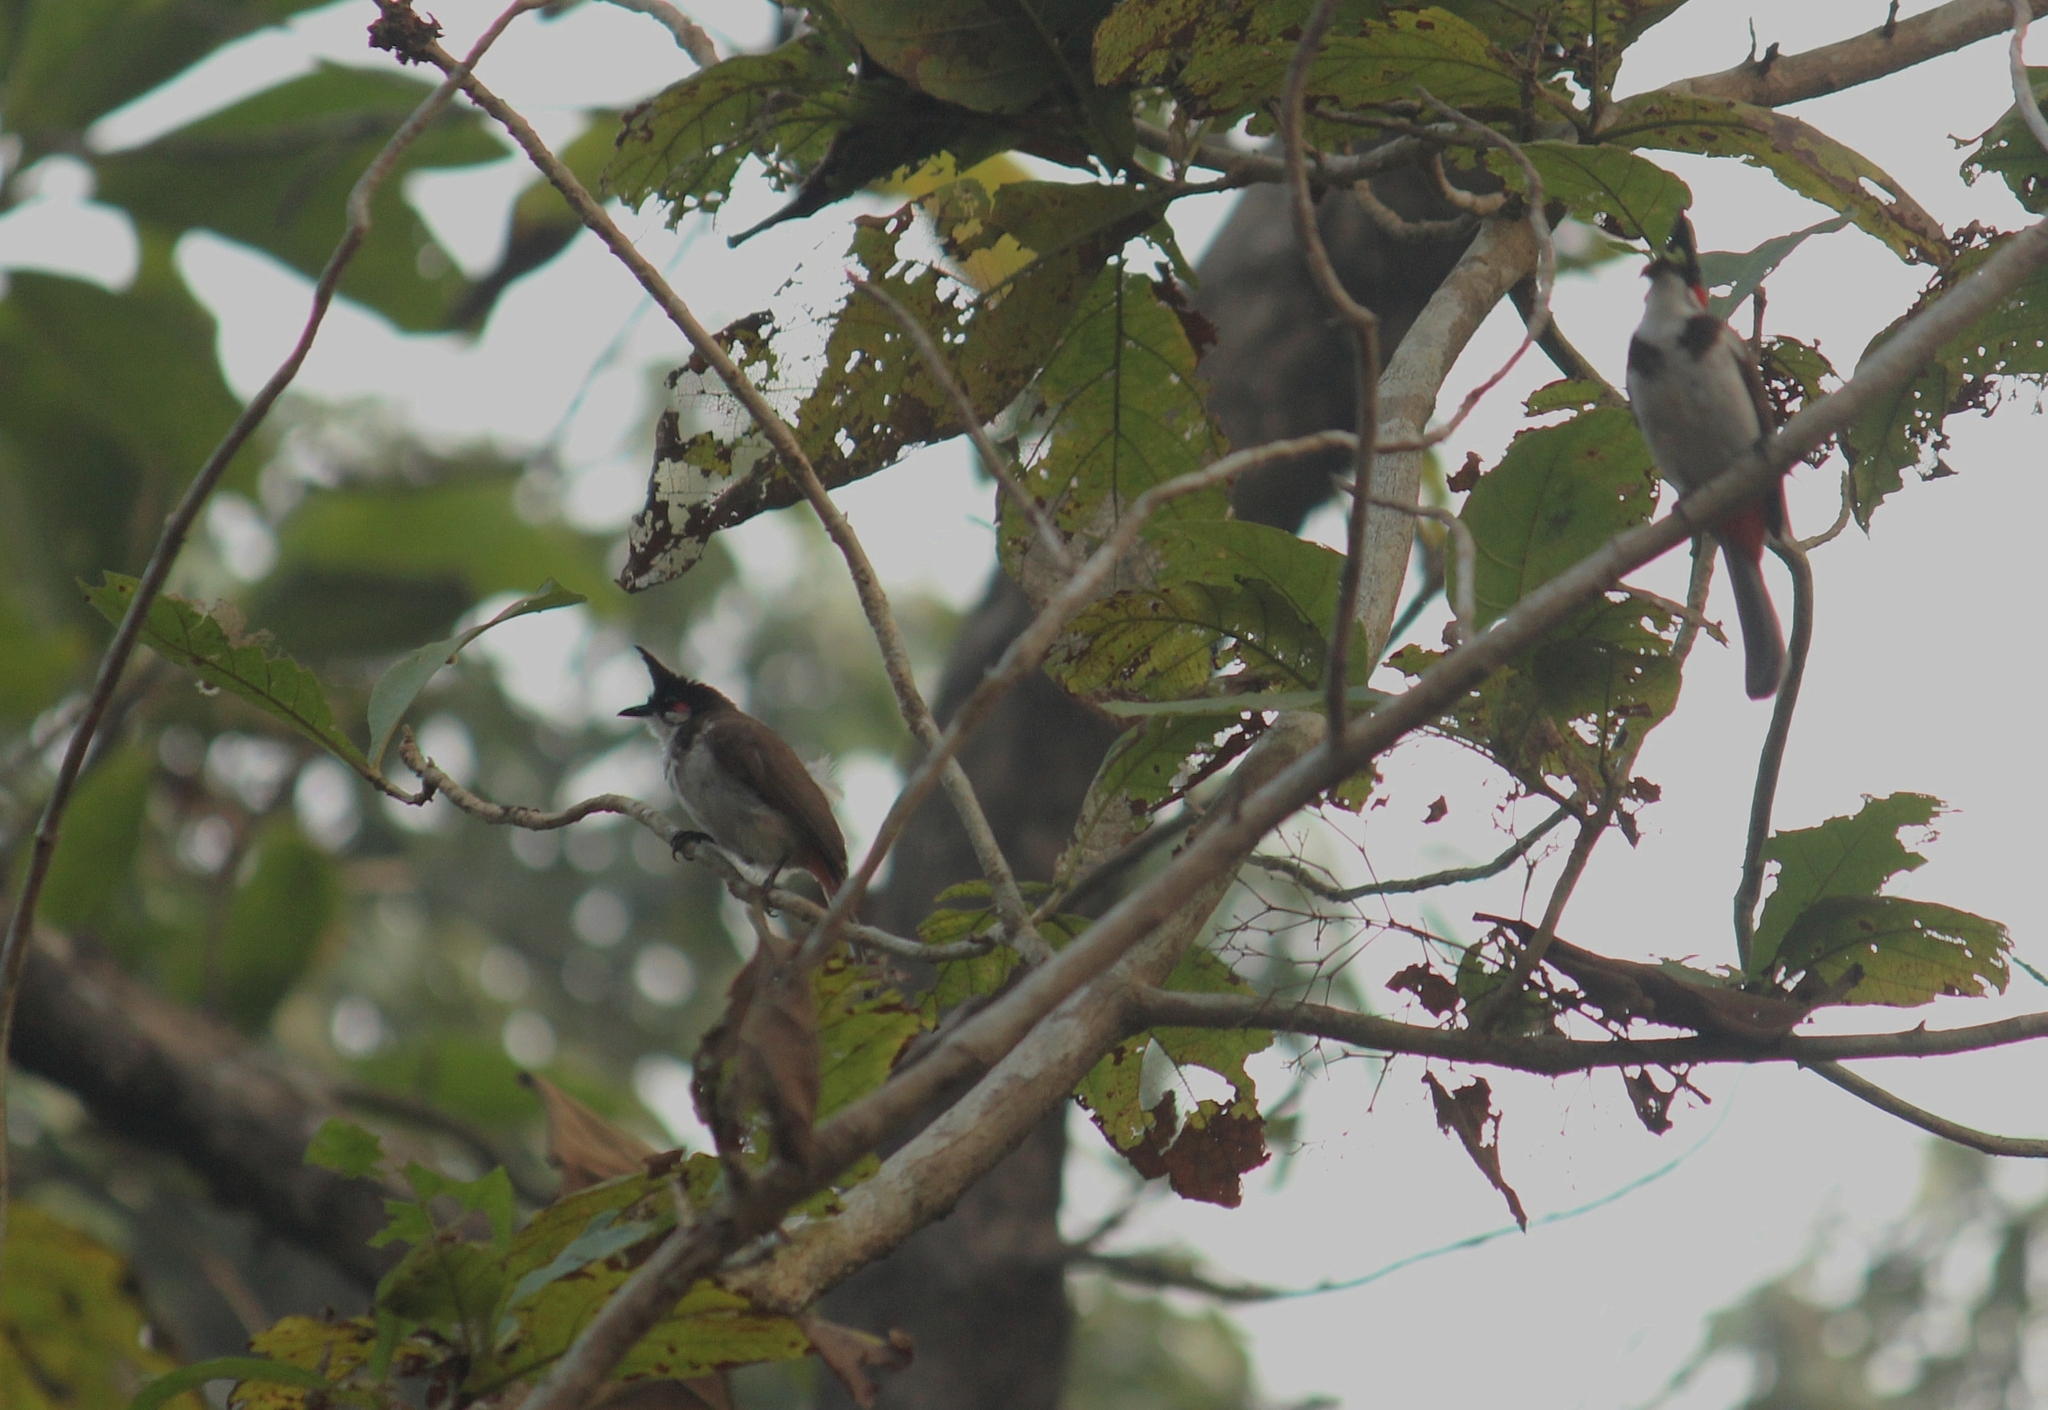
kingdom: Animalia
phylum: Chordata
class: Aves
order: Passeriformes
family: Pycnonotidae
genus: Pycnonotus
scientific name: Pycnonotus jocosus
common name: Red-whiskered bulbul
